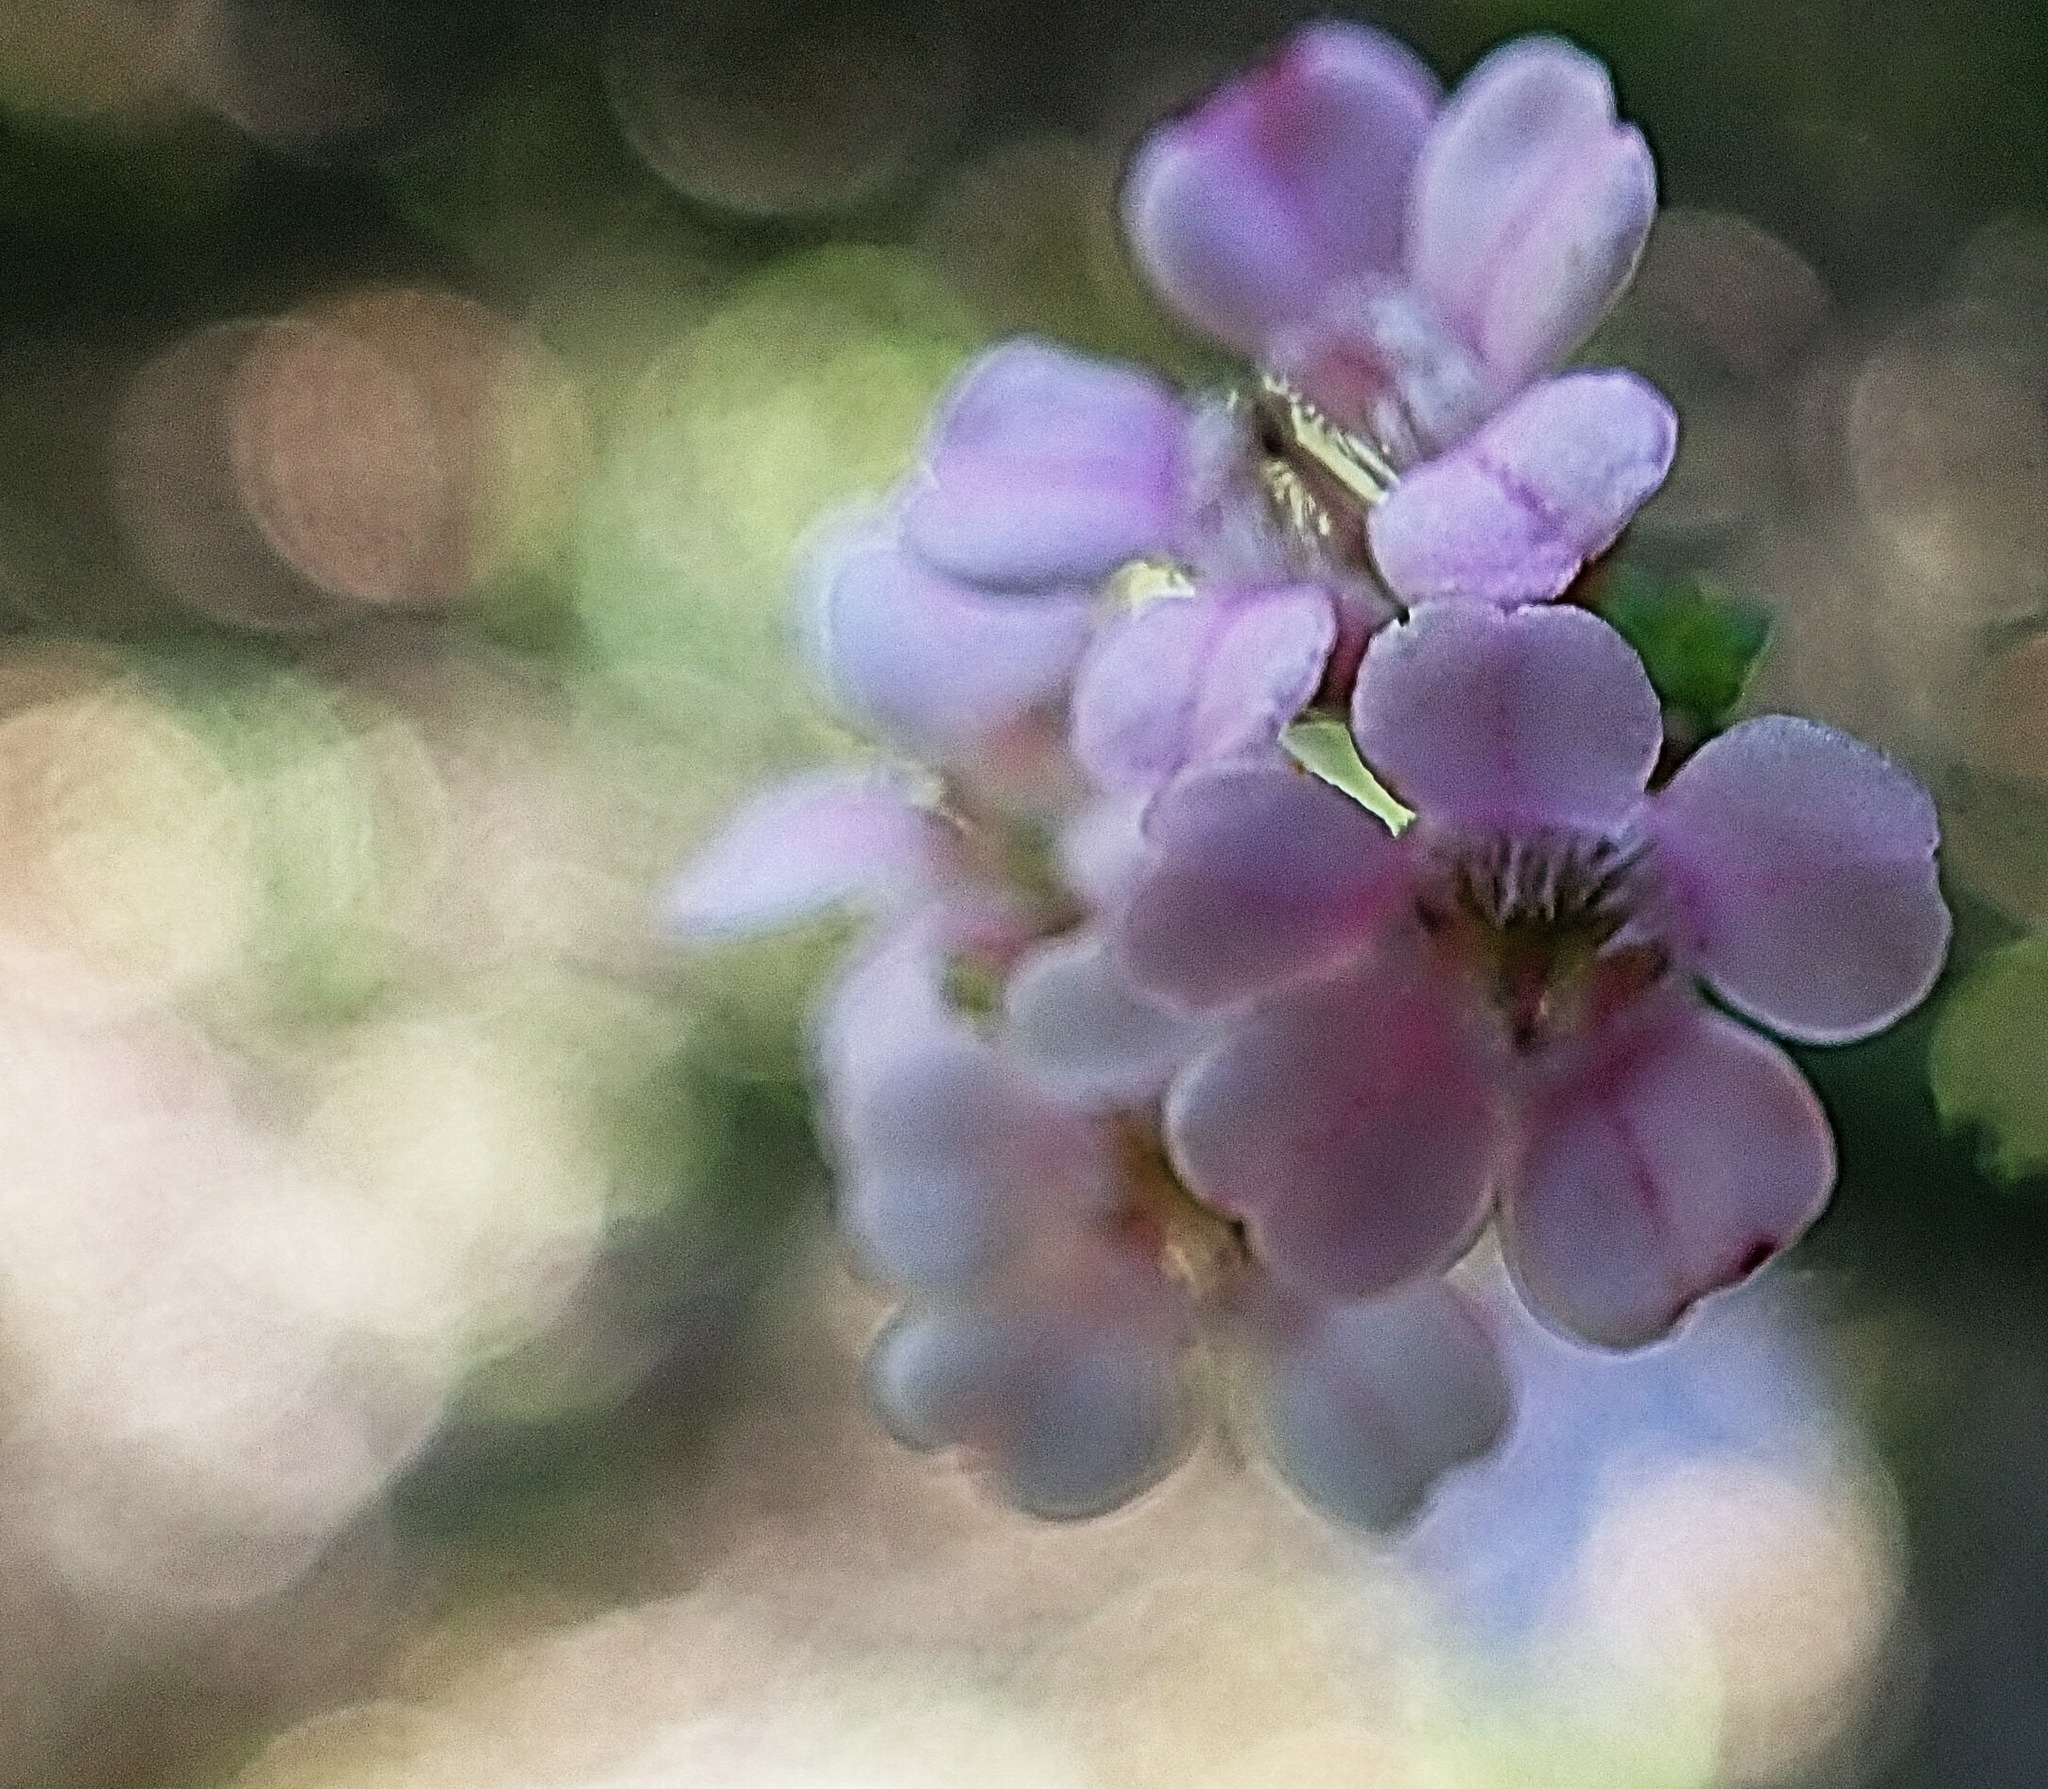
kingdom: Plantae
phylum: Tracheophyta
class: Magnoliopsida
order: Sapindales
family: Rutaceae
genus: Euchaetis
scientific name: Euchaetis albertiniana
